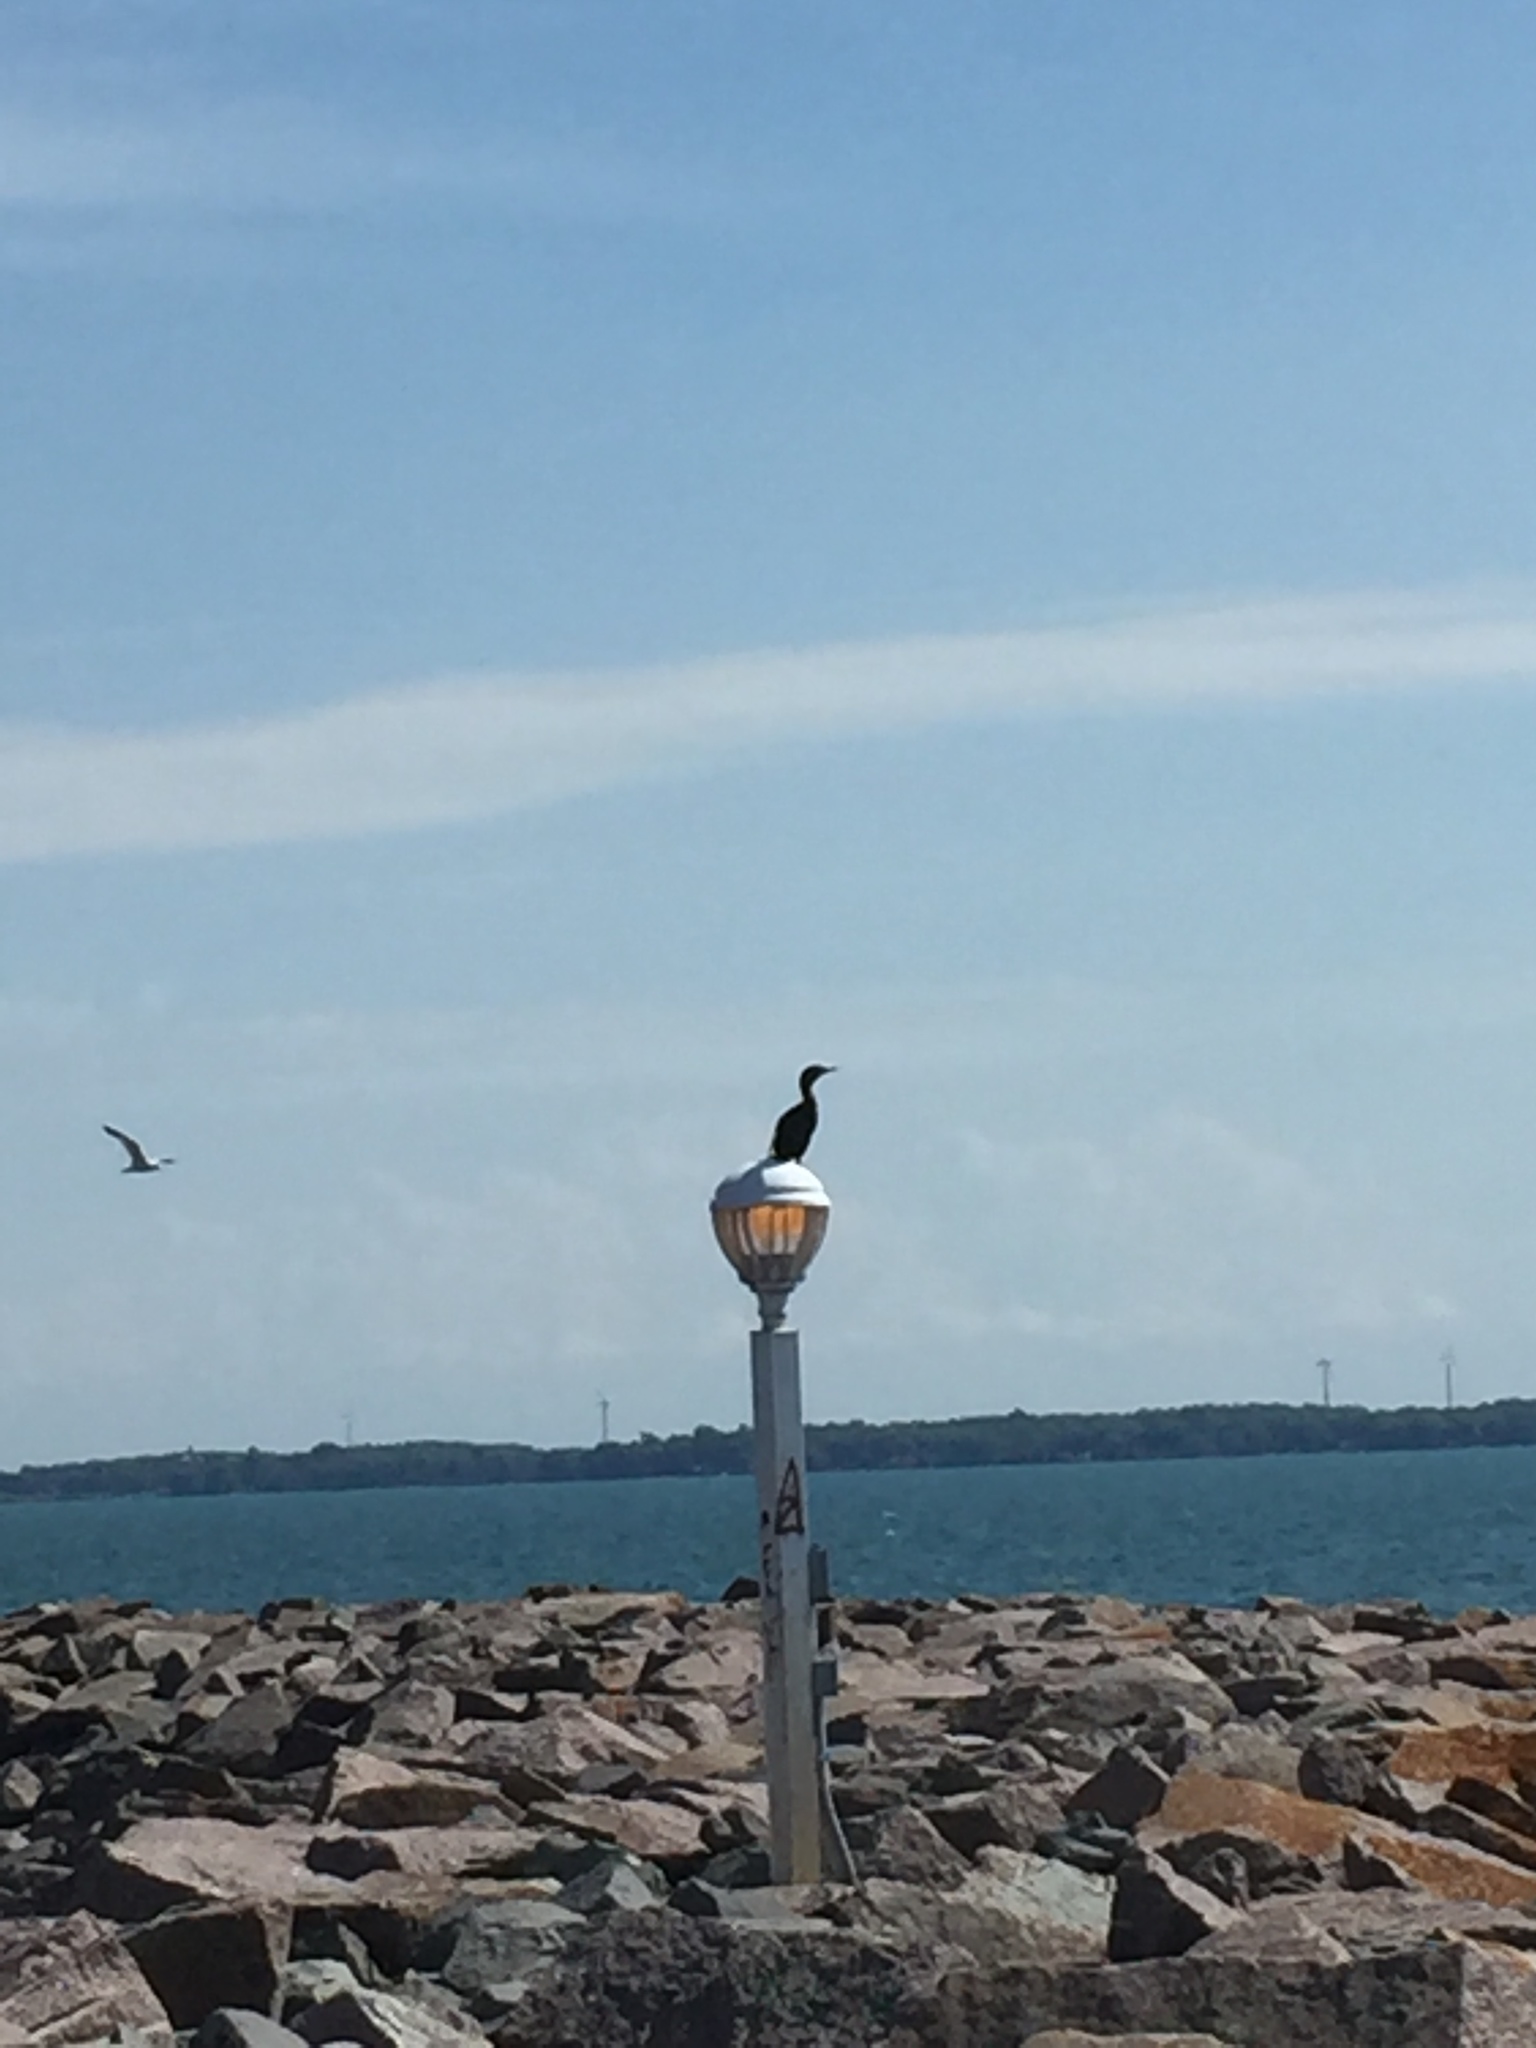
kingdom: Animalia
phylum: Chordata
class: Aves
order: Suliformes
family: Phalacrocoracidae
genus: Phalacrocorax
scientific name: Phalacrocorax auritus
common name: Double-crested cormorant
